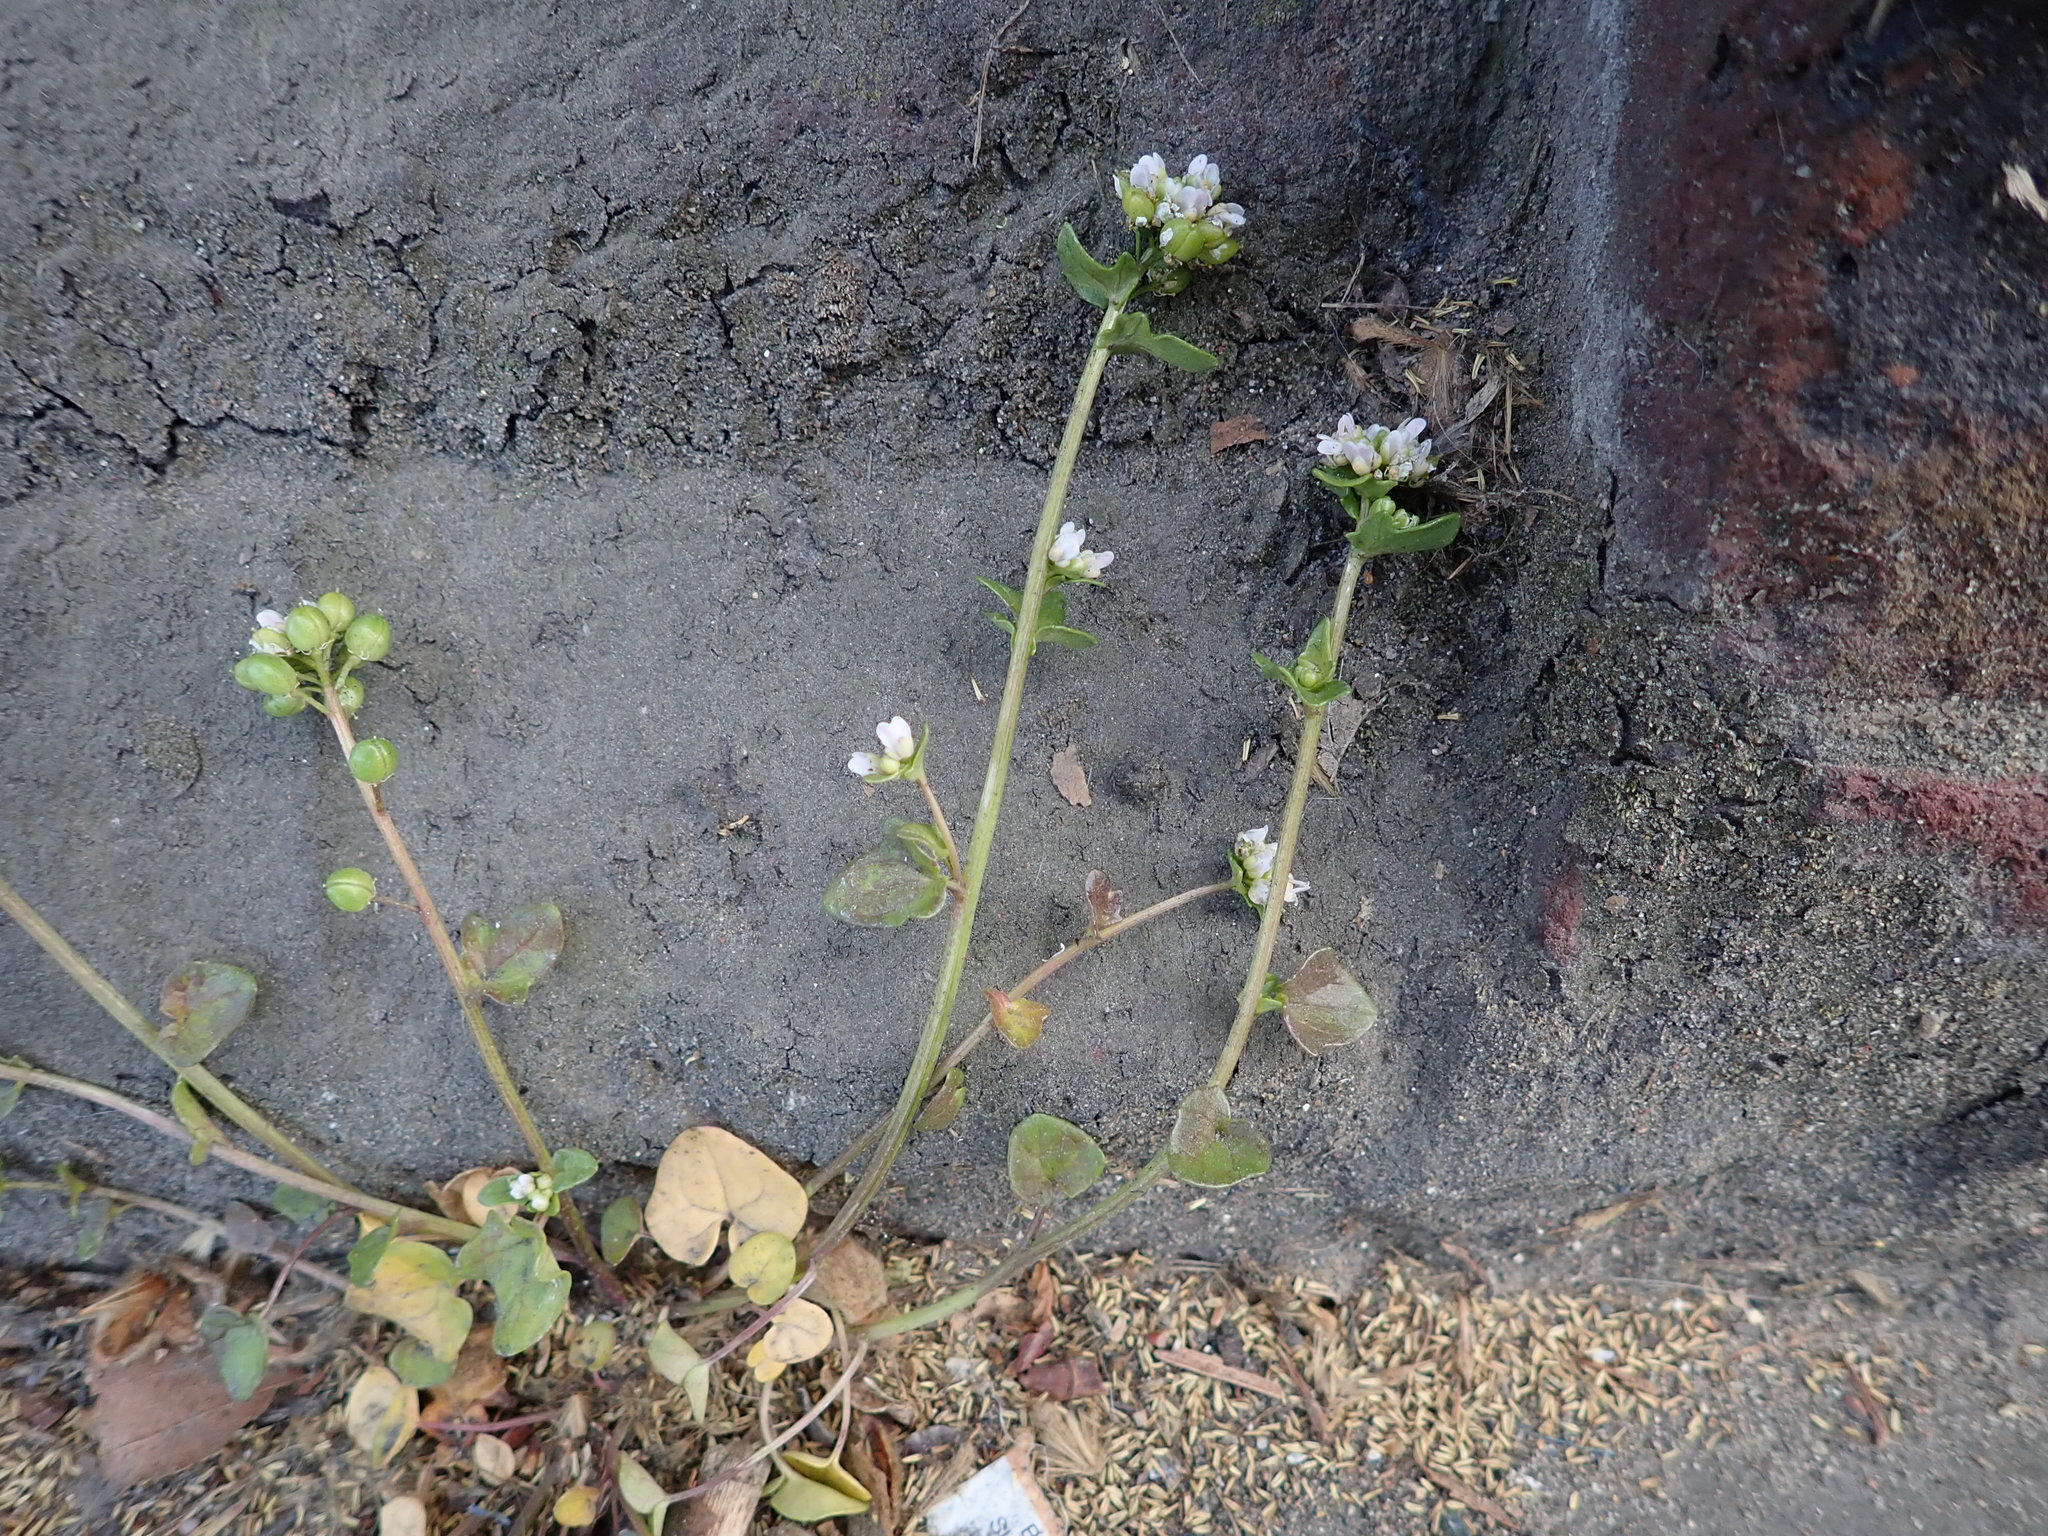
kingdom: Plantae
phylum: Tracheophyta
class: Magnoliopsida
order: Brassicales
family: Brassicaceae
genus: Cochlearia
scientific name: Cochlearia danica
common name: Early scurvygrass
